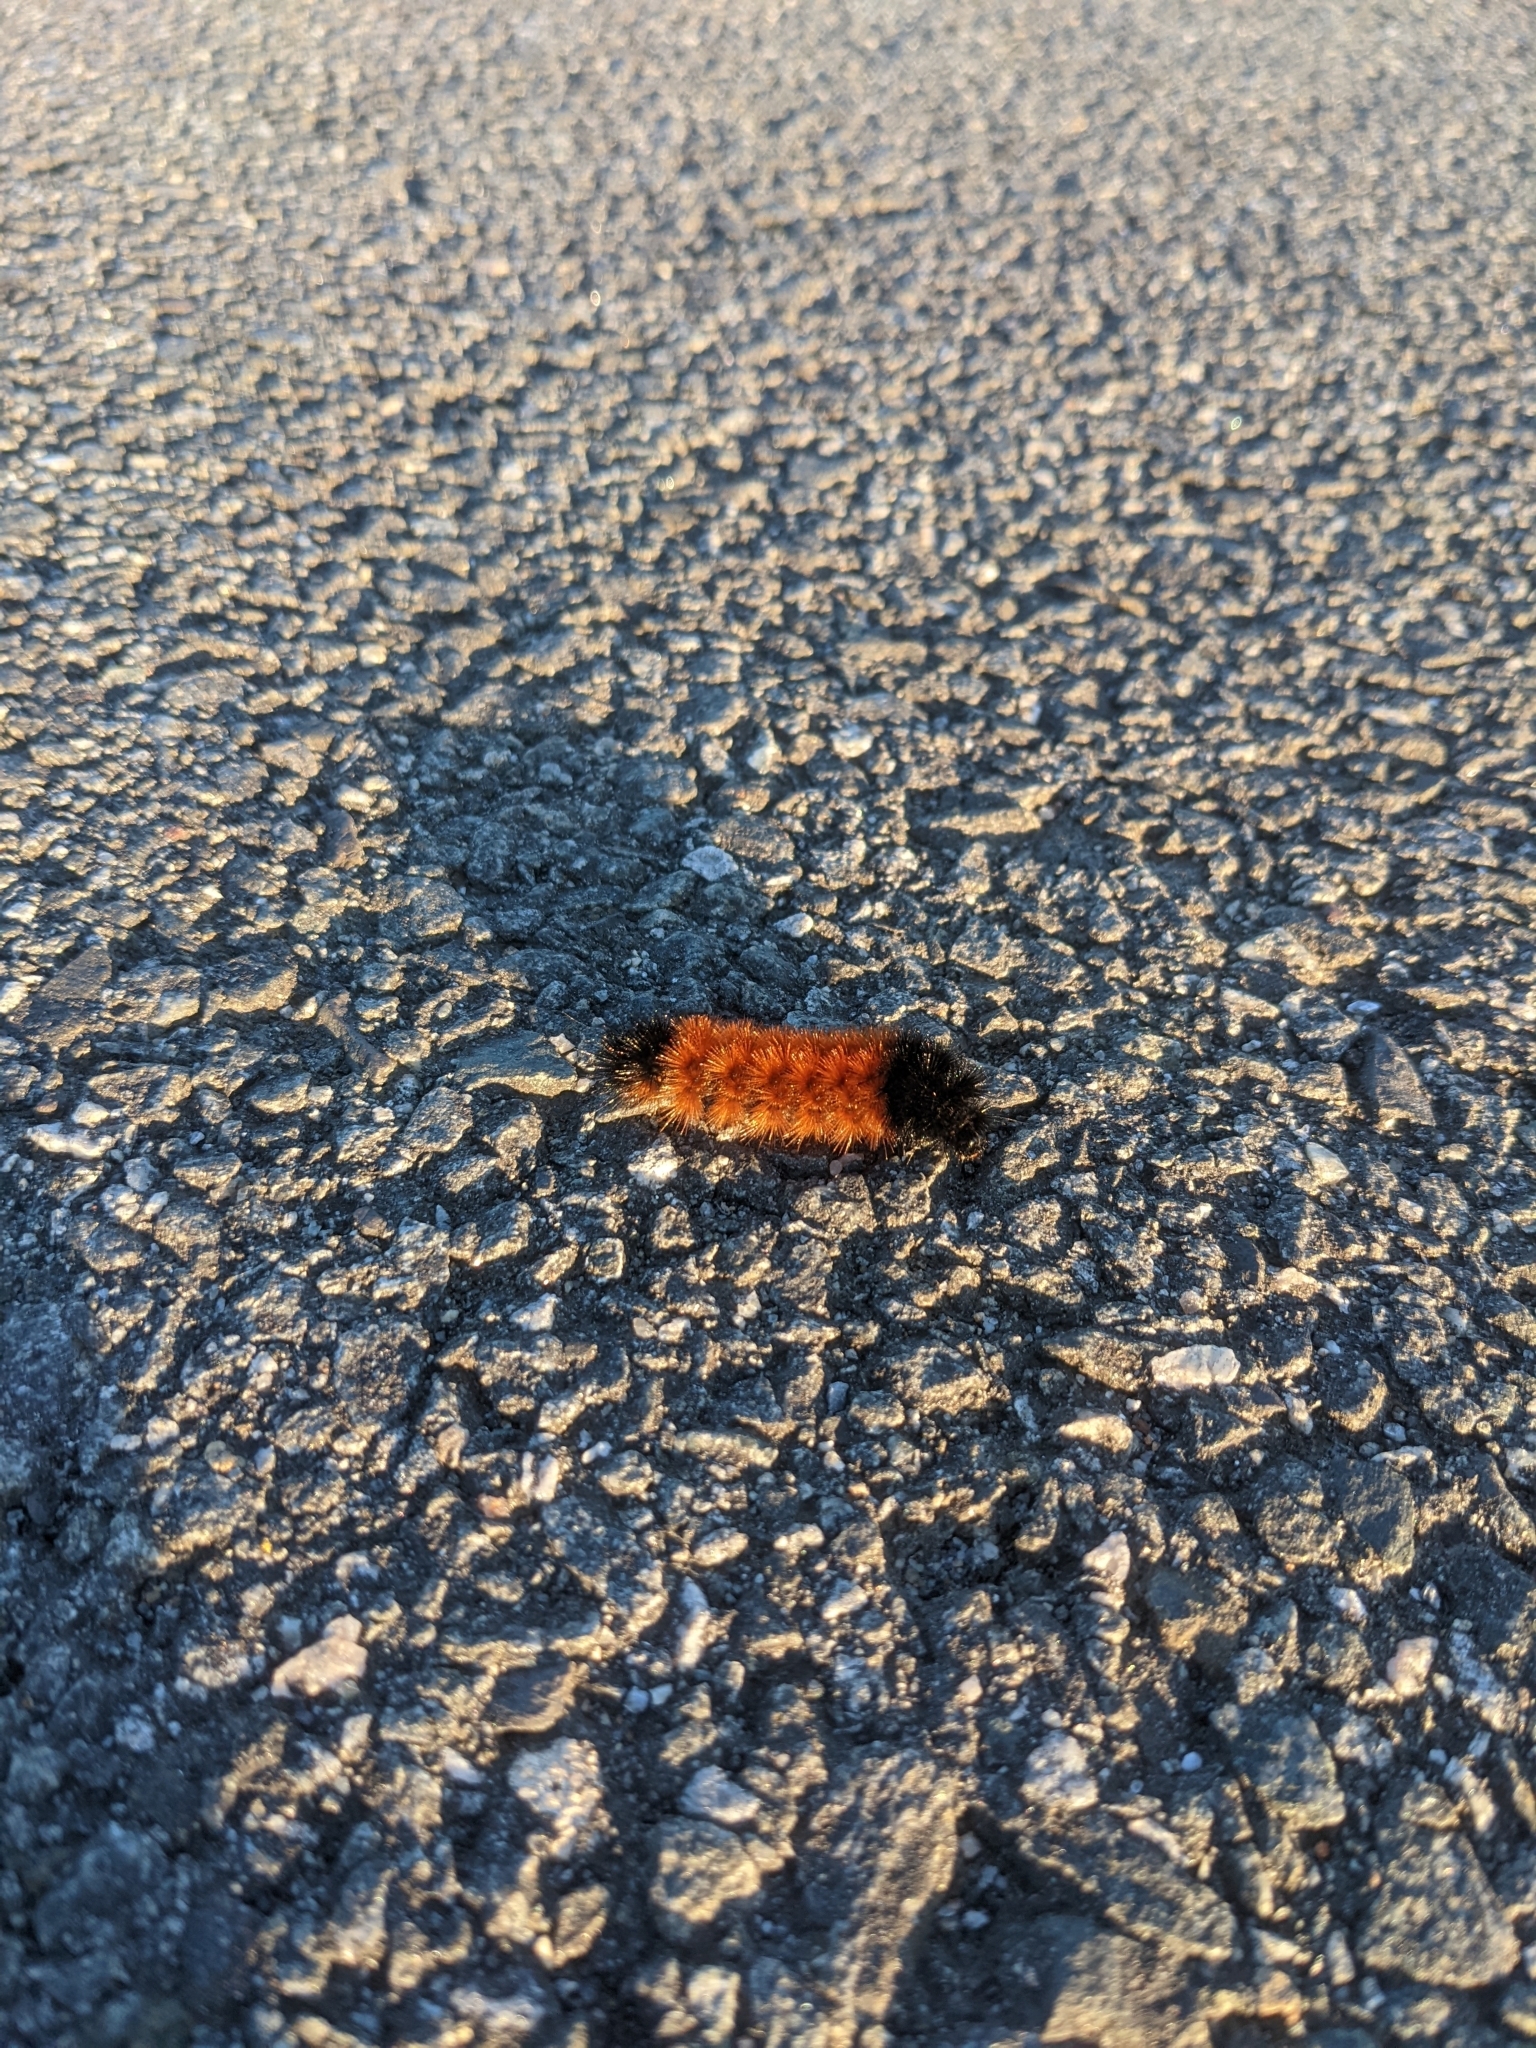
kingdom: Animalia
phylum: Arthropoda
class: Insecta
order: Lepidoptera
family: Erebidae
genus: Pyrrharctia
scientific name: Pyrrharctia isabella
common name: Isabella tiger moth
